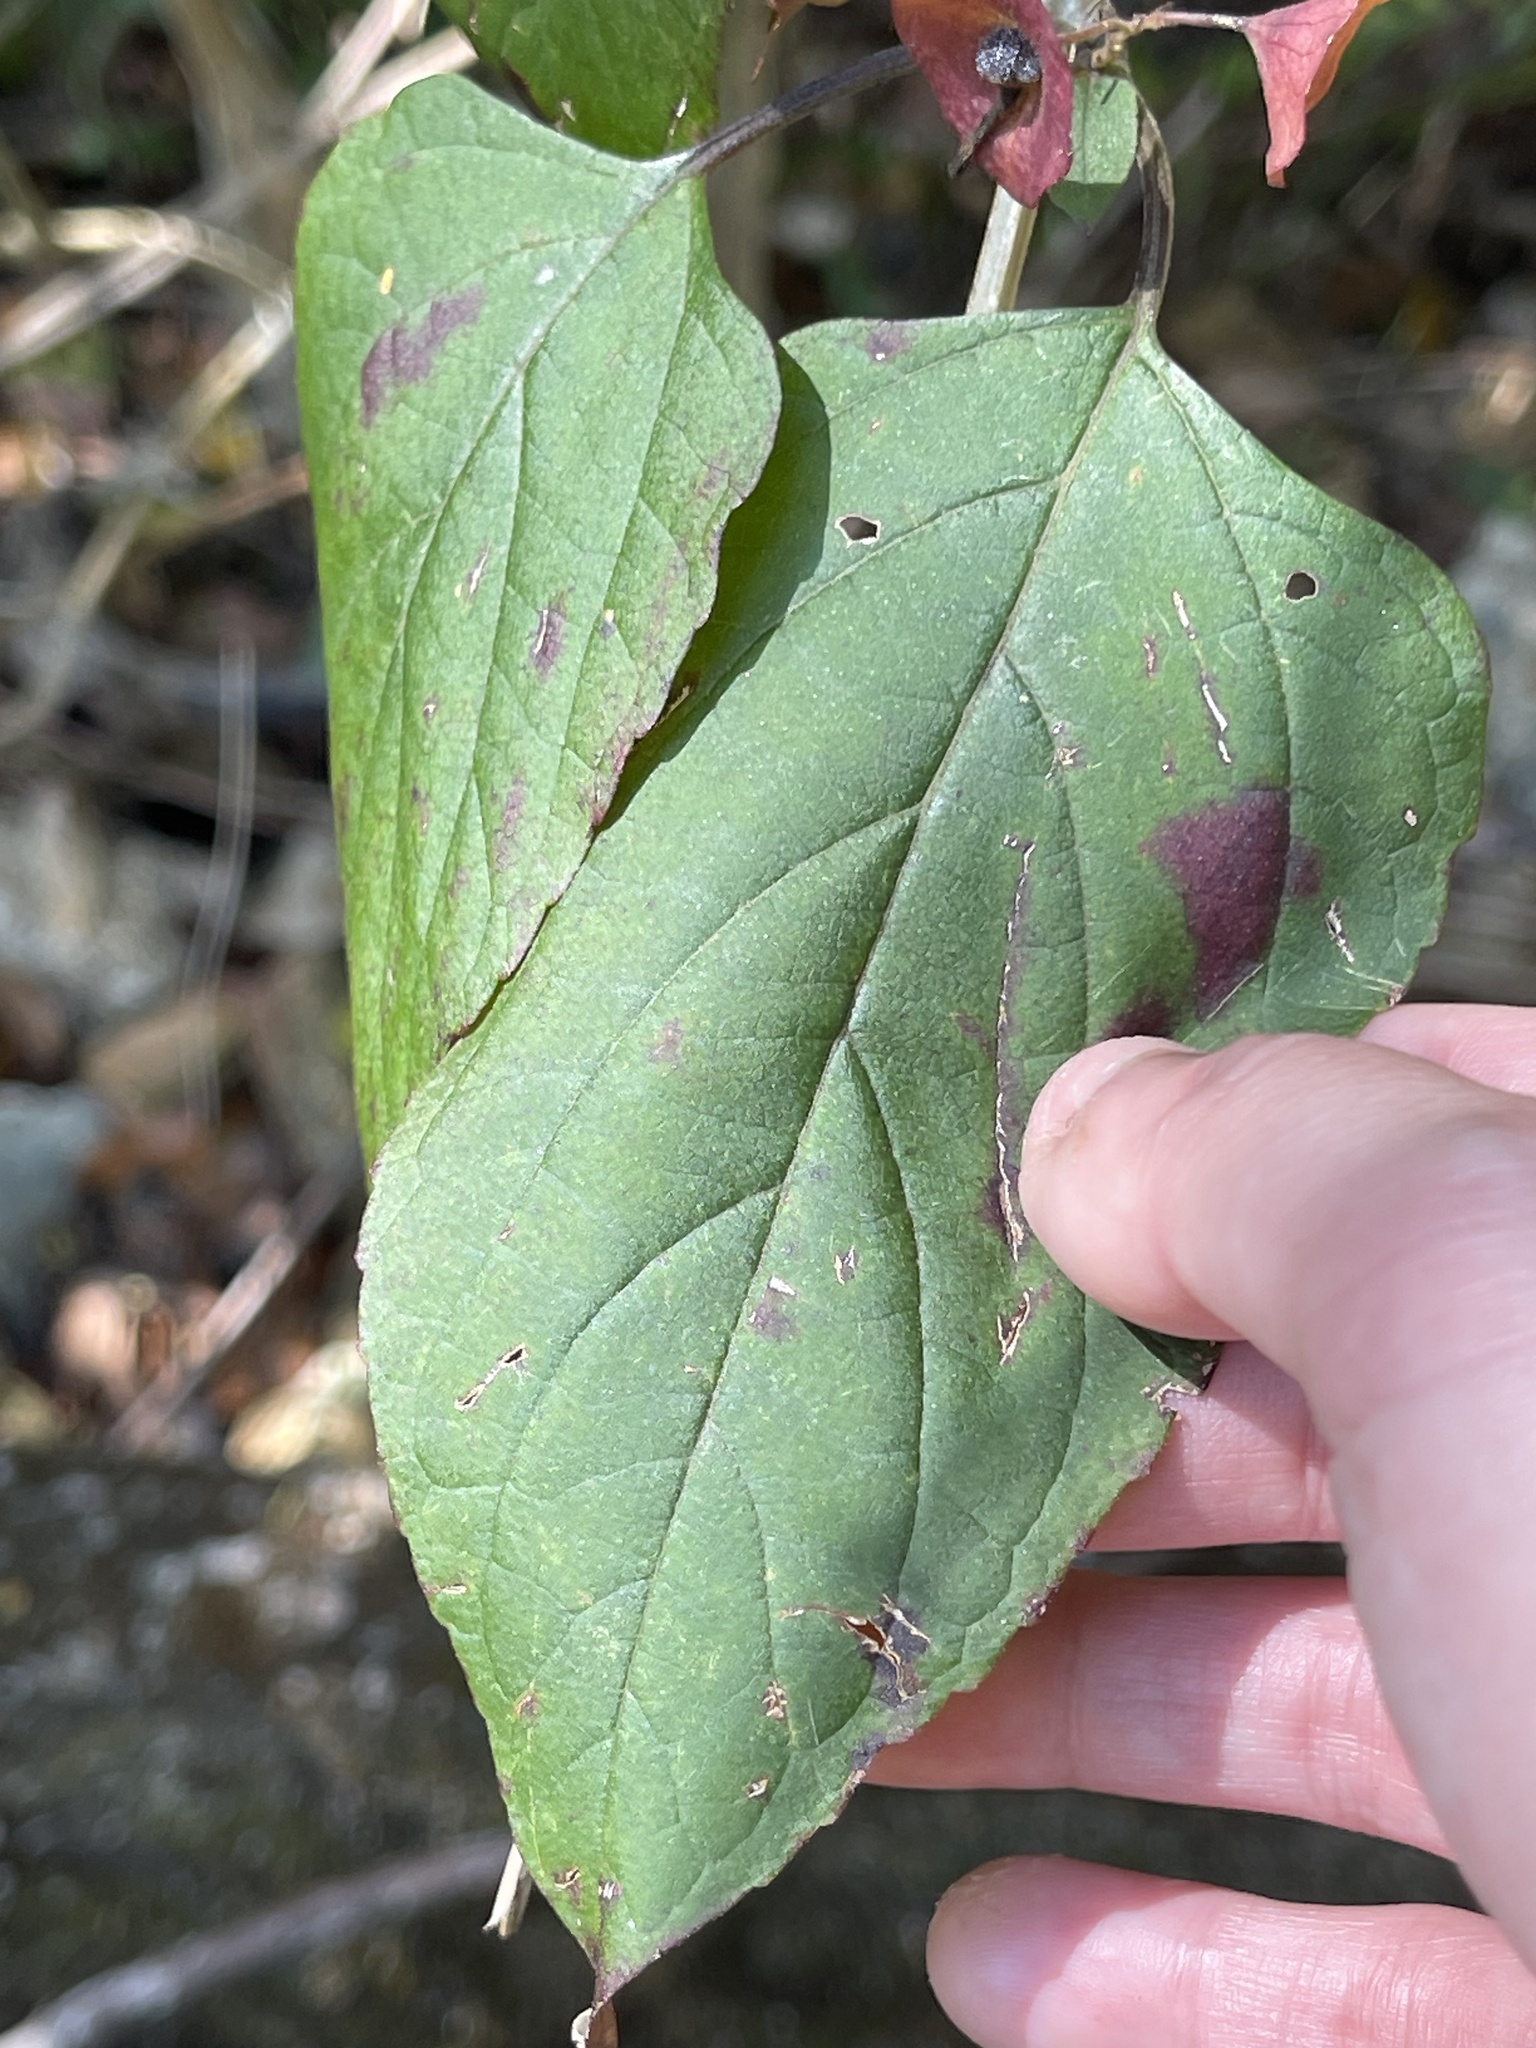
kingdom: Plantae
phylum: Tracheophyta
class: Magnoliopsida
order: Lamiales
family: Lamiaceae
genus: Holmskioldia
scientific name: Holmskioldia sanguinea
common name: Chinese hatplant
